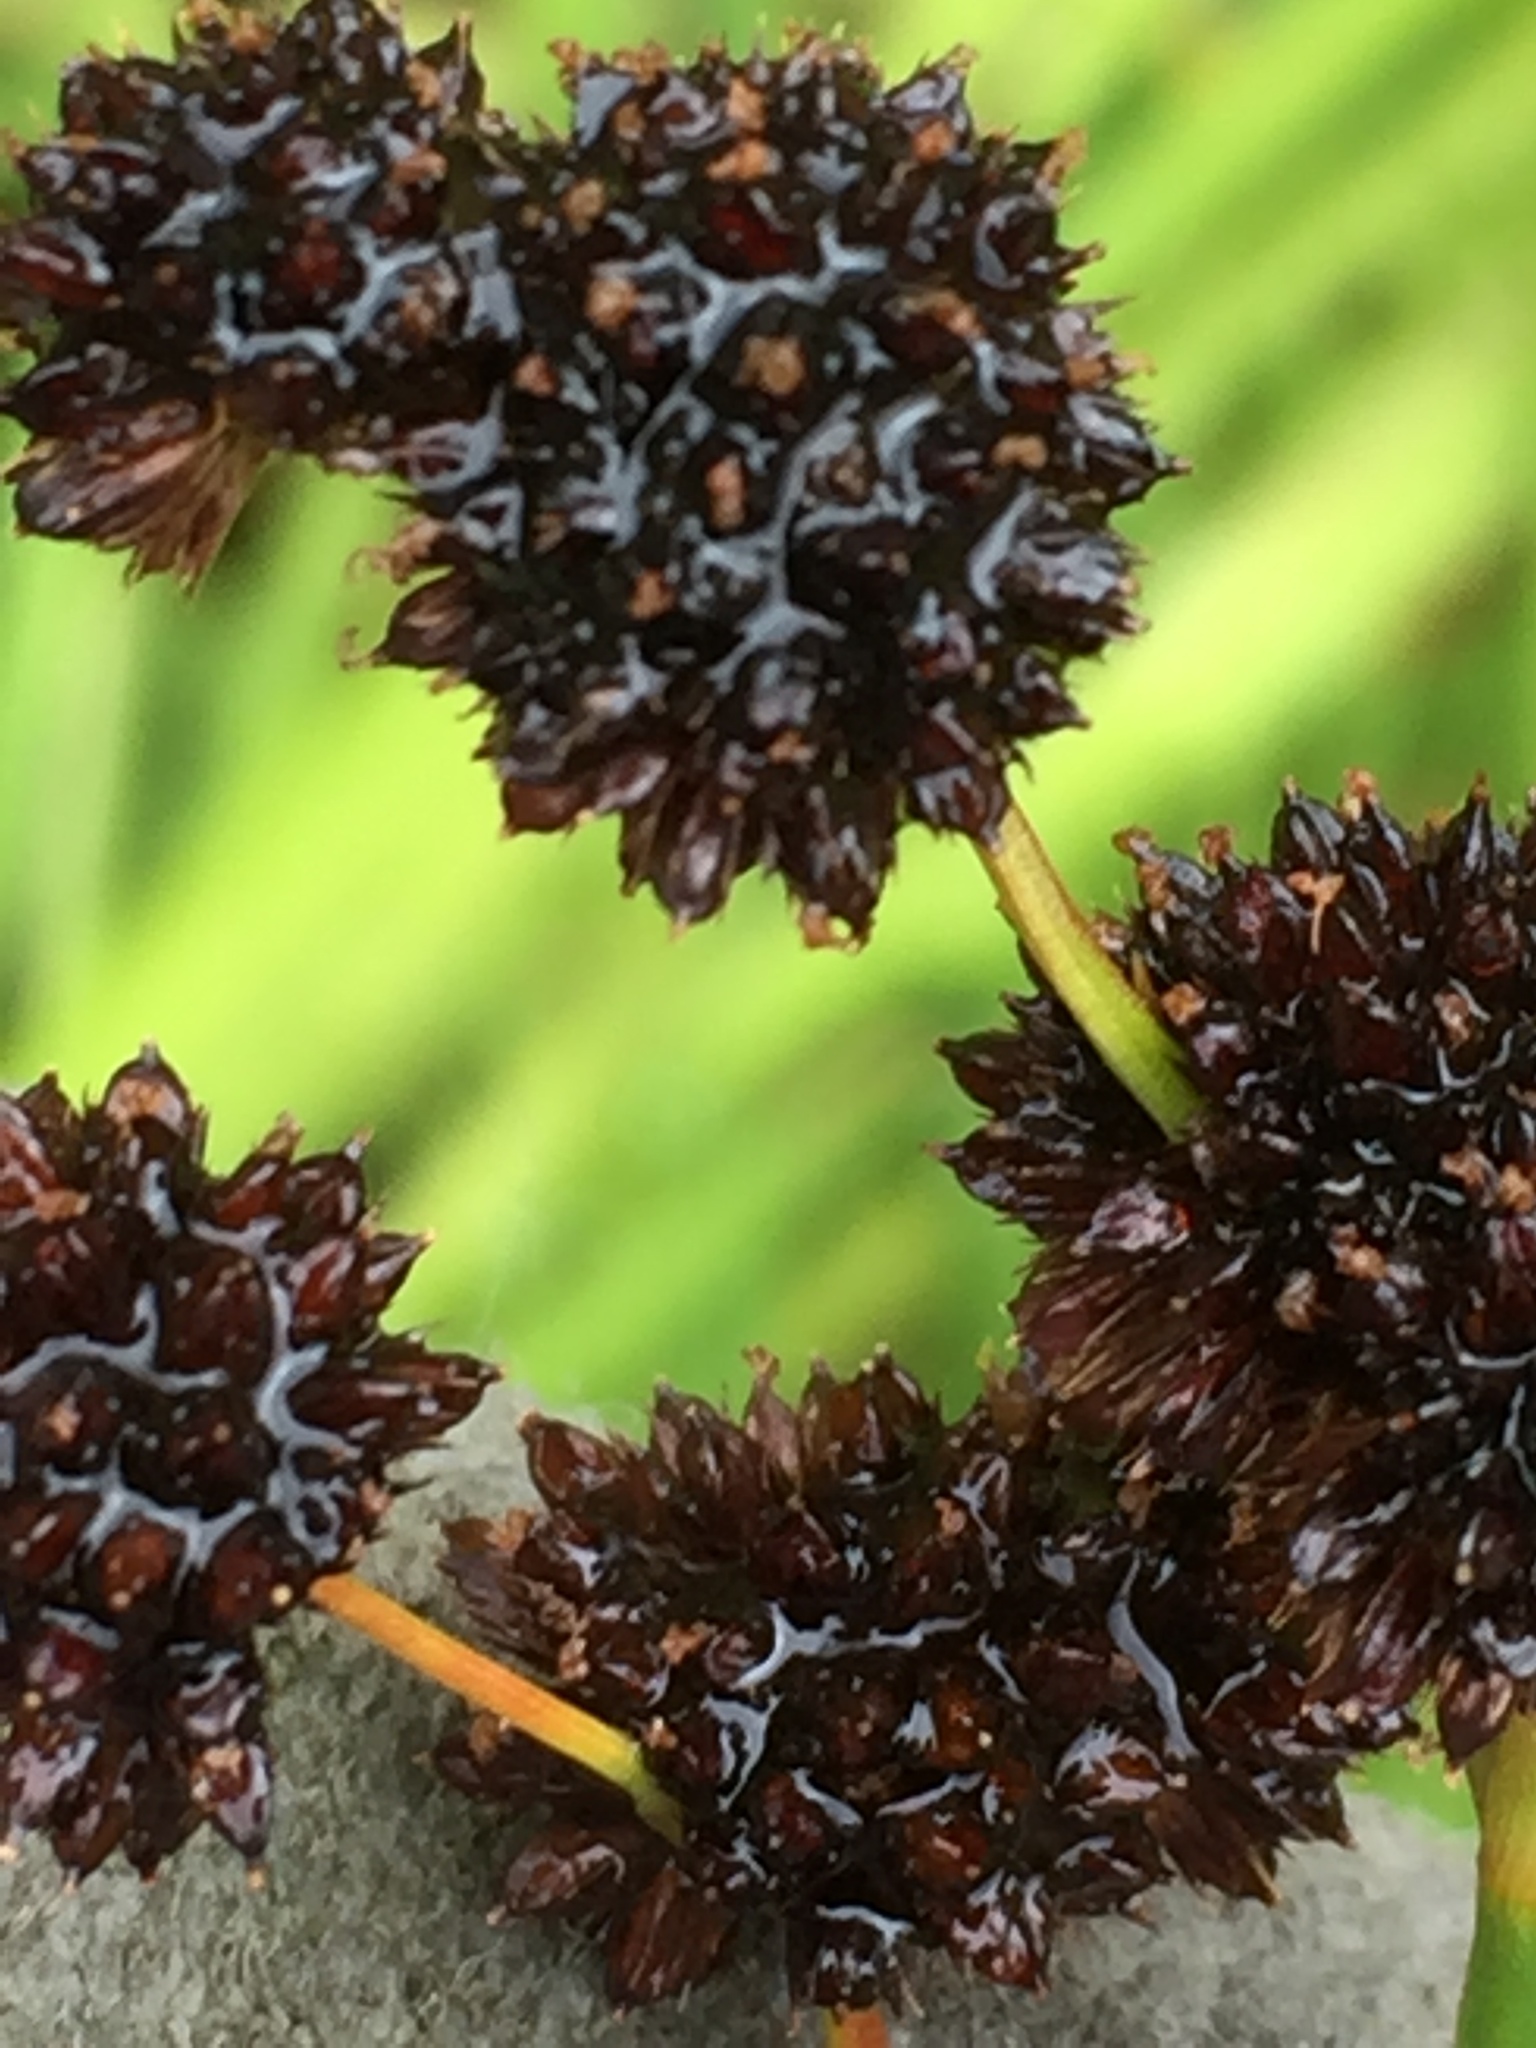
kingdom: Plantae
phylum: Tracheophyta
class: Liliopsida
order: Poales
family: Juncaceae
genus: Juncus
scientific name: Juncus ensifolius
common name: Sword-leaved rush
